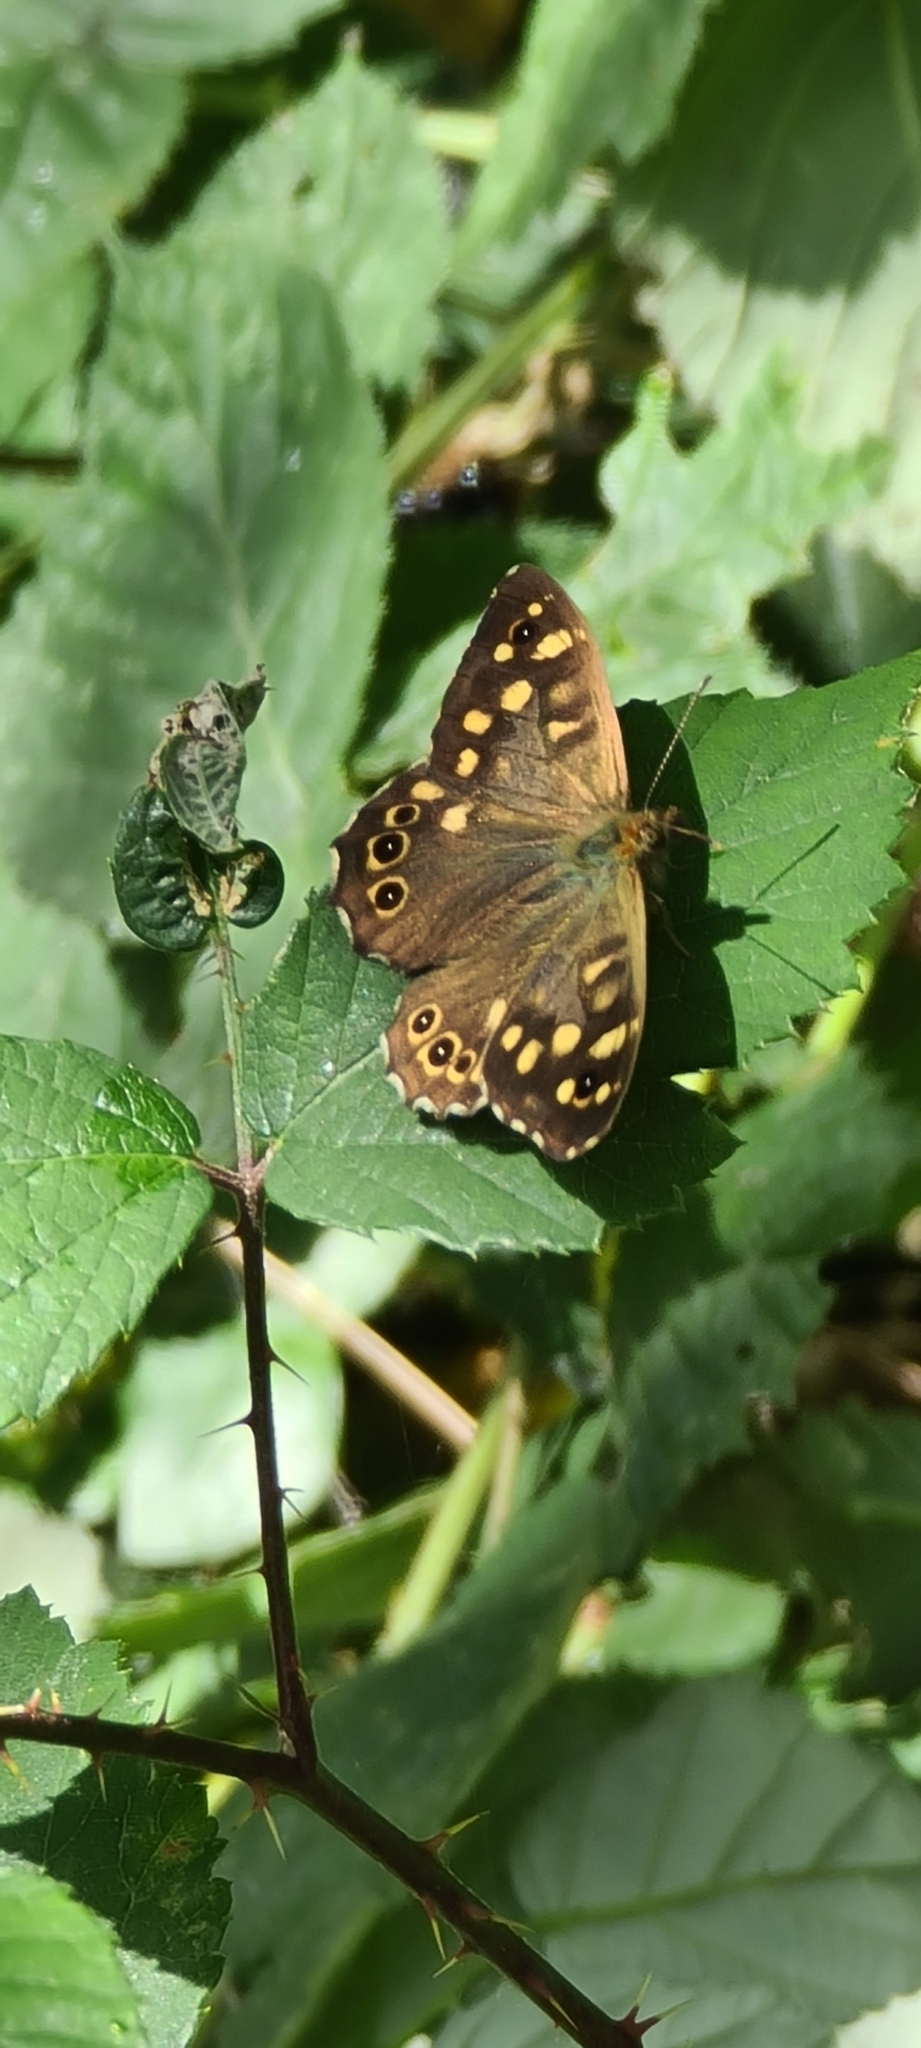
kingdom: Animalia
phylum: Arthropoda
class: Insecta
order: Lepidoptera
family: Nymphalidae
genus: Pararge
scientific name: Pararge aegeria
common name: Speckled wood
